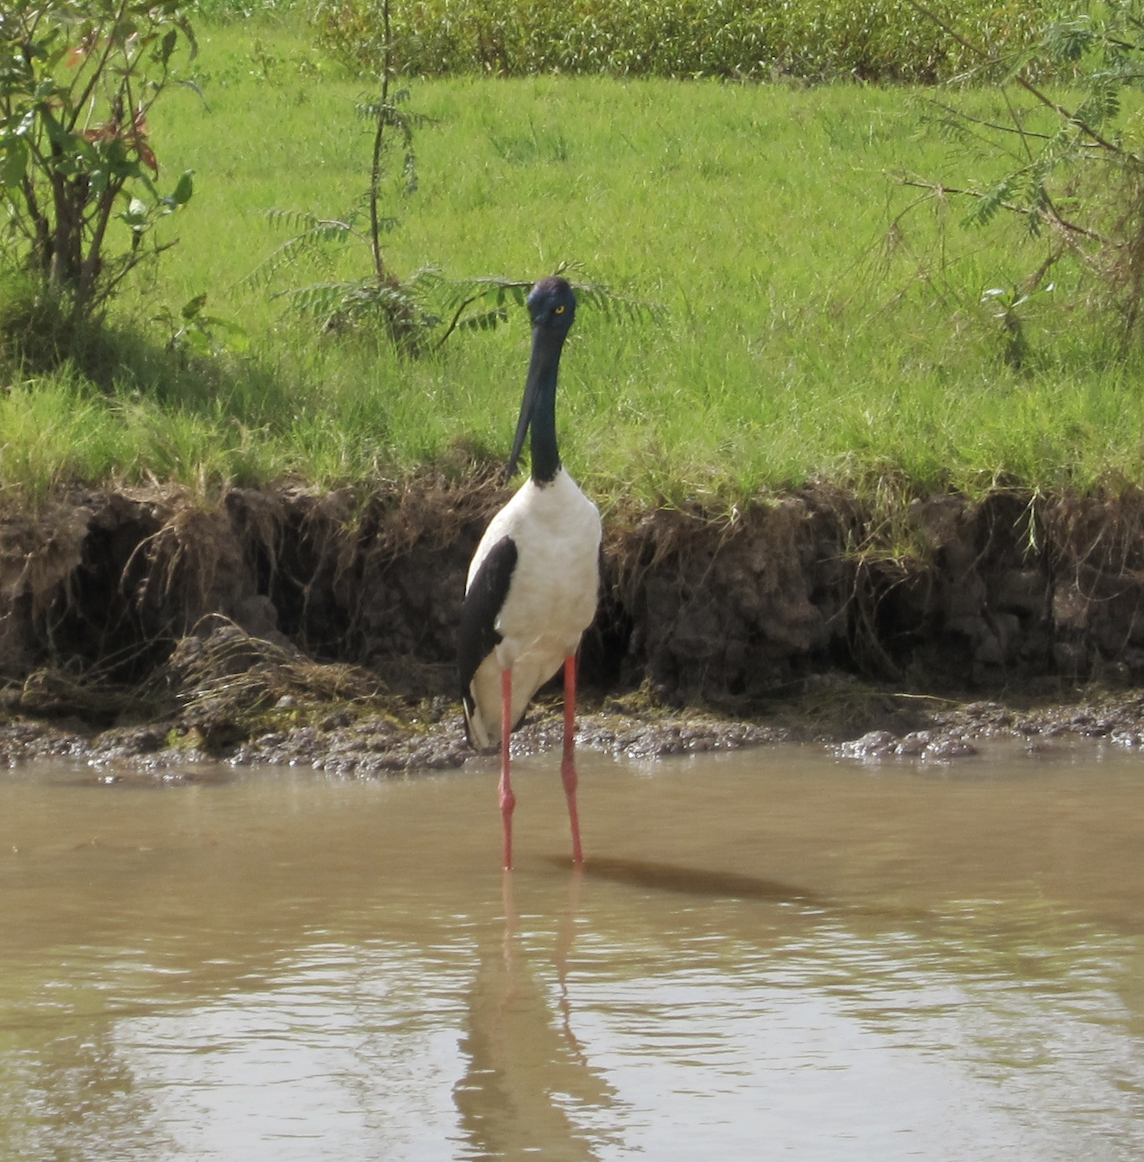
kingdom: Animalia
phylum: Chordata
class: Aves
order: Ciconiiformes
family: Ciconiidae
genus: Ephippiorhynchus
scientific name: Ephippiorhynchus asiaticus
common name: Black-necked stork
